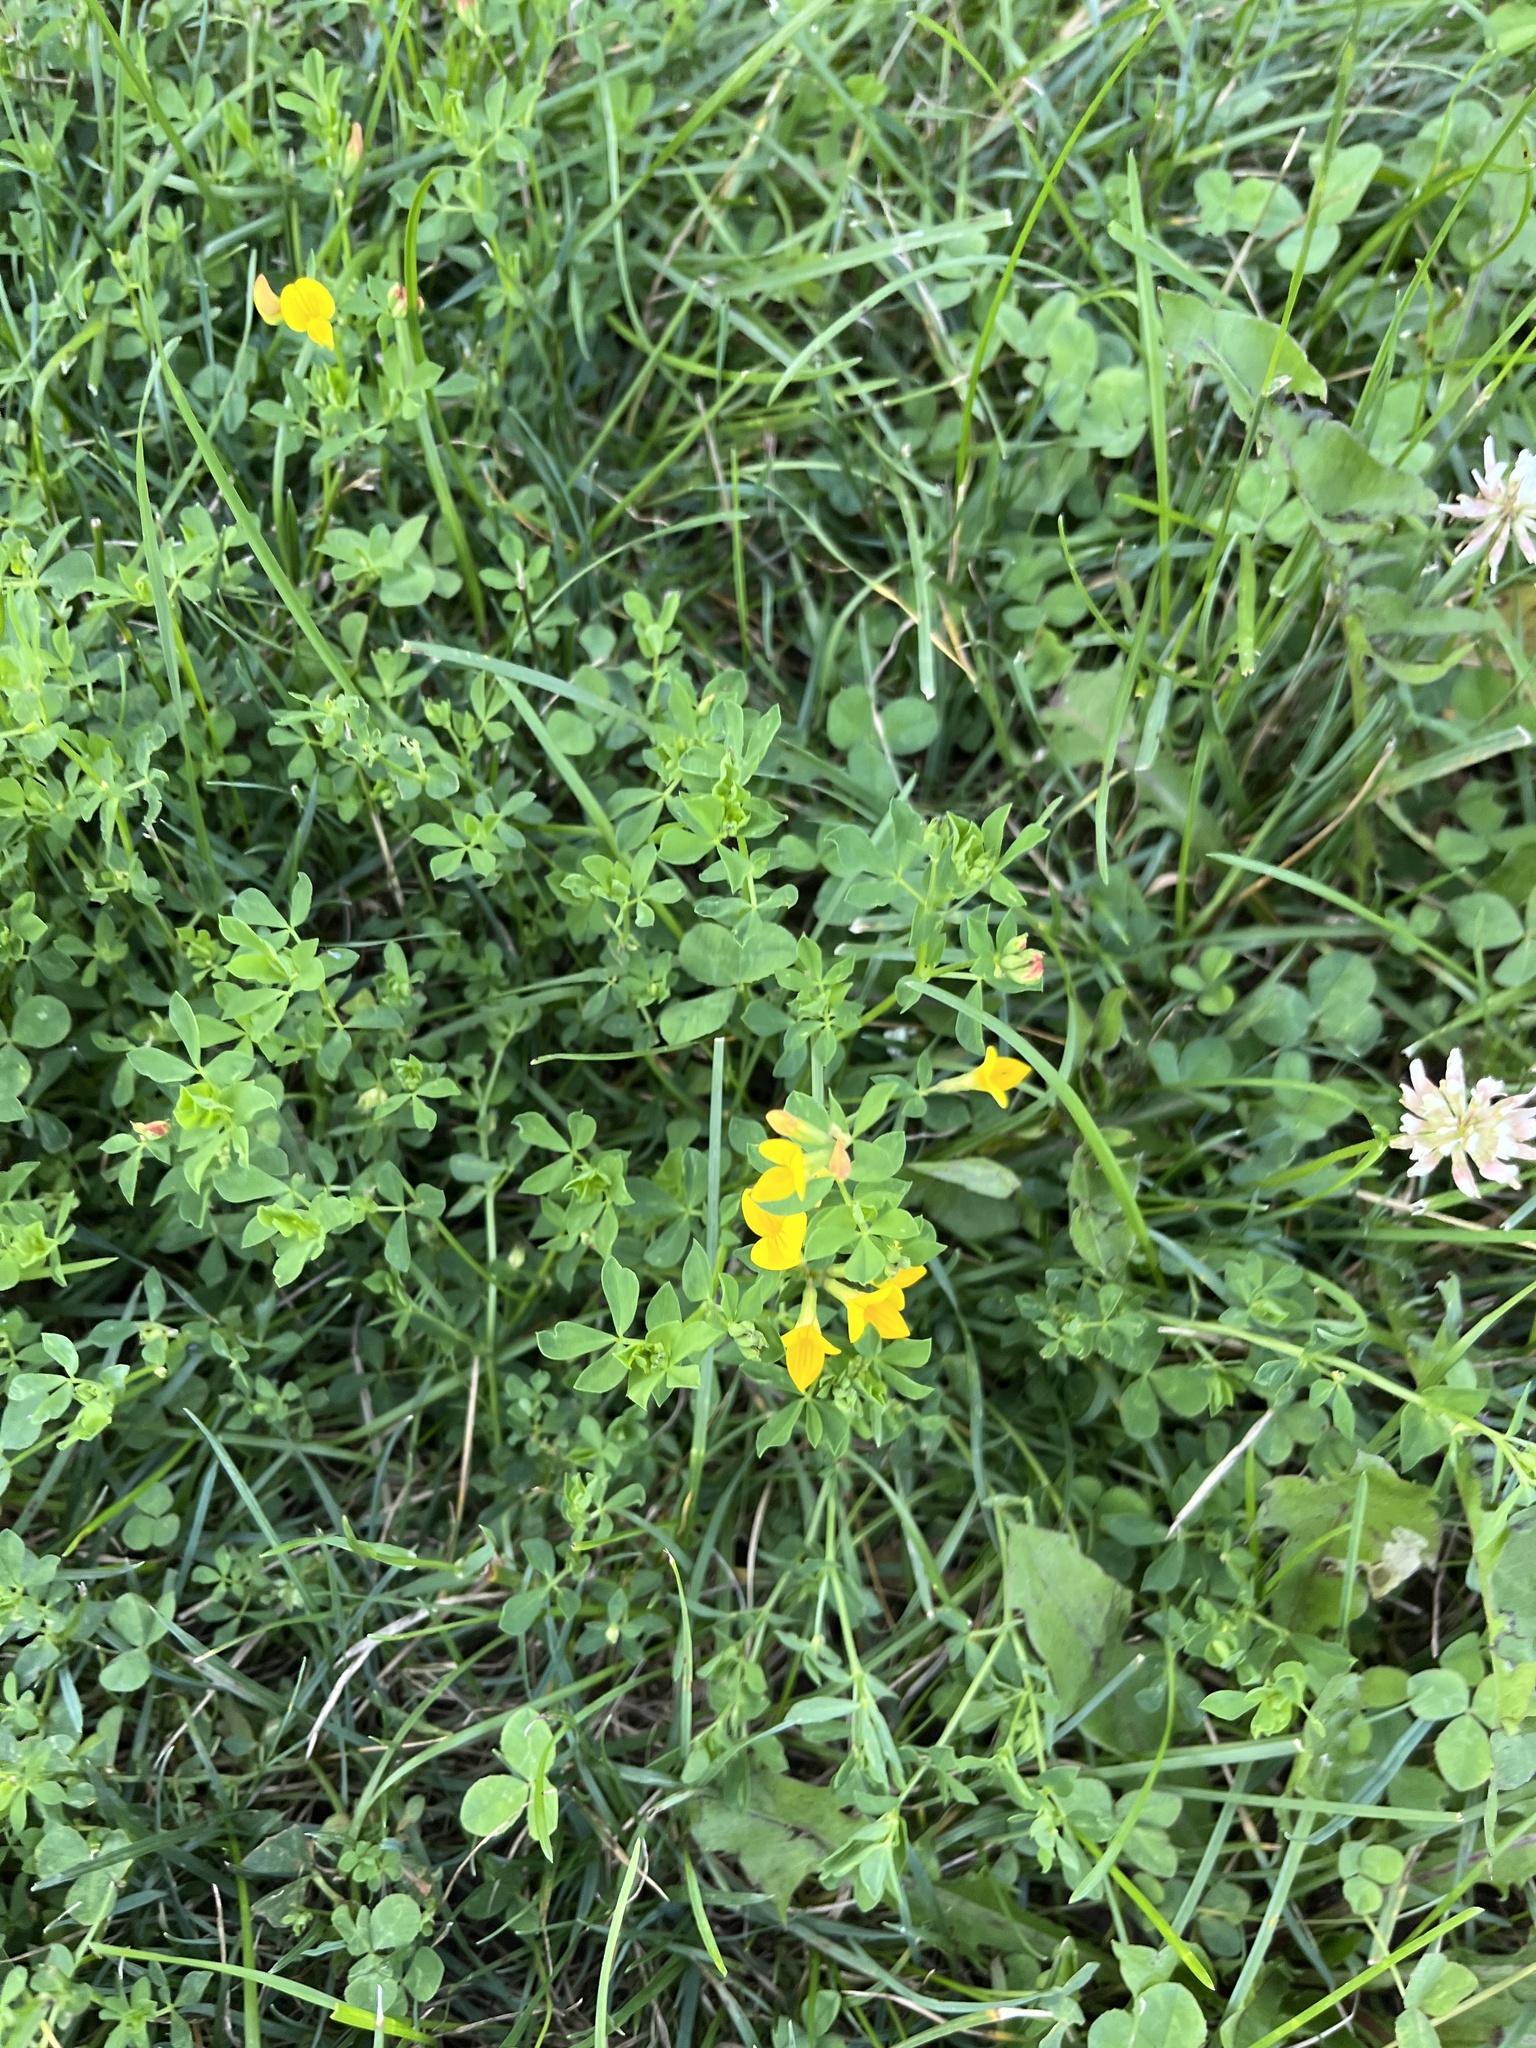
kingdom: Plantae
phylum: Tracheophyta
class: Magnoliopsida
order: Fabales
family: Fabaceae
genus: Lotus
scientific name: Lotus corniculatus
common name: Common bird's-foot-trefoil
